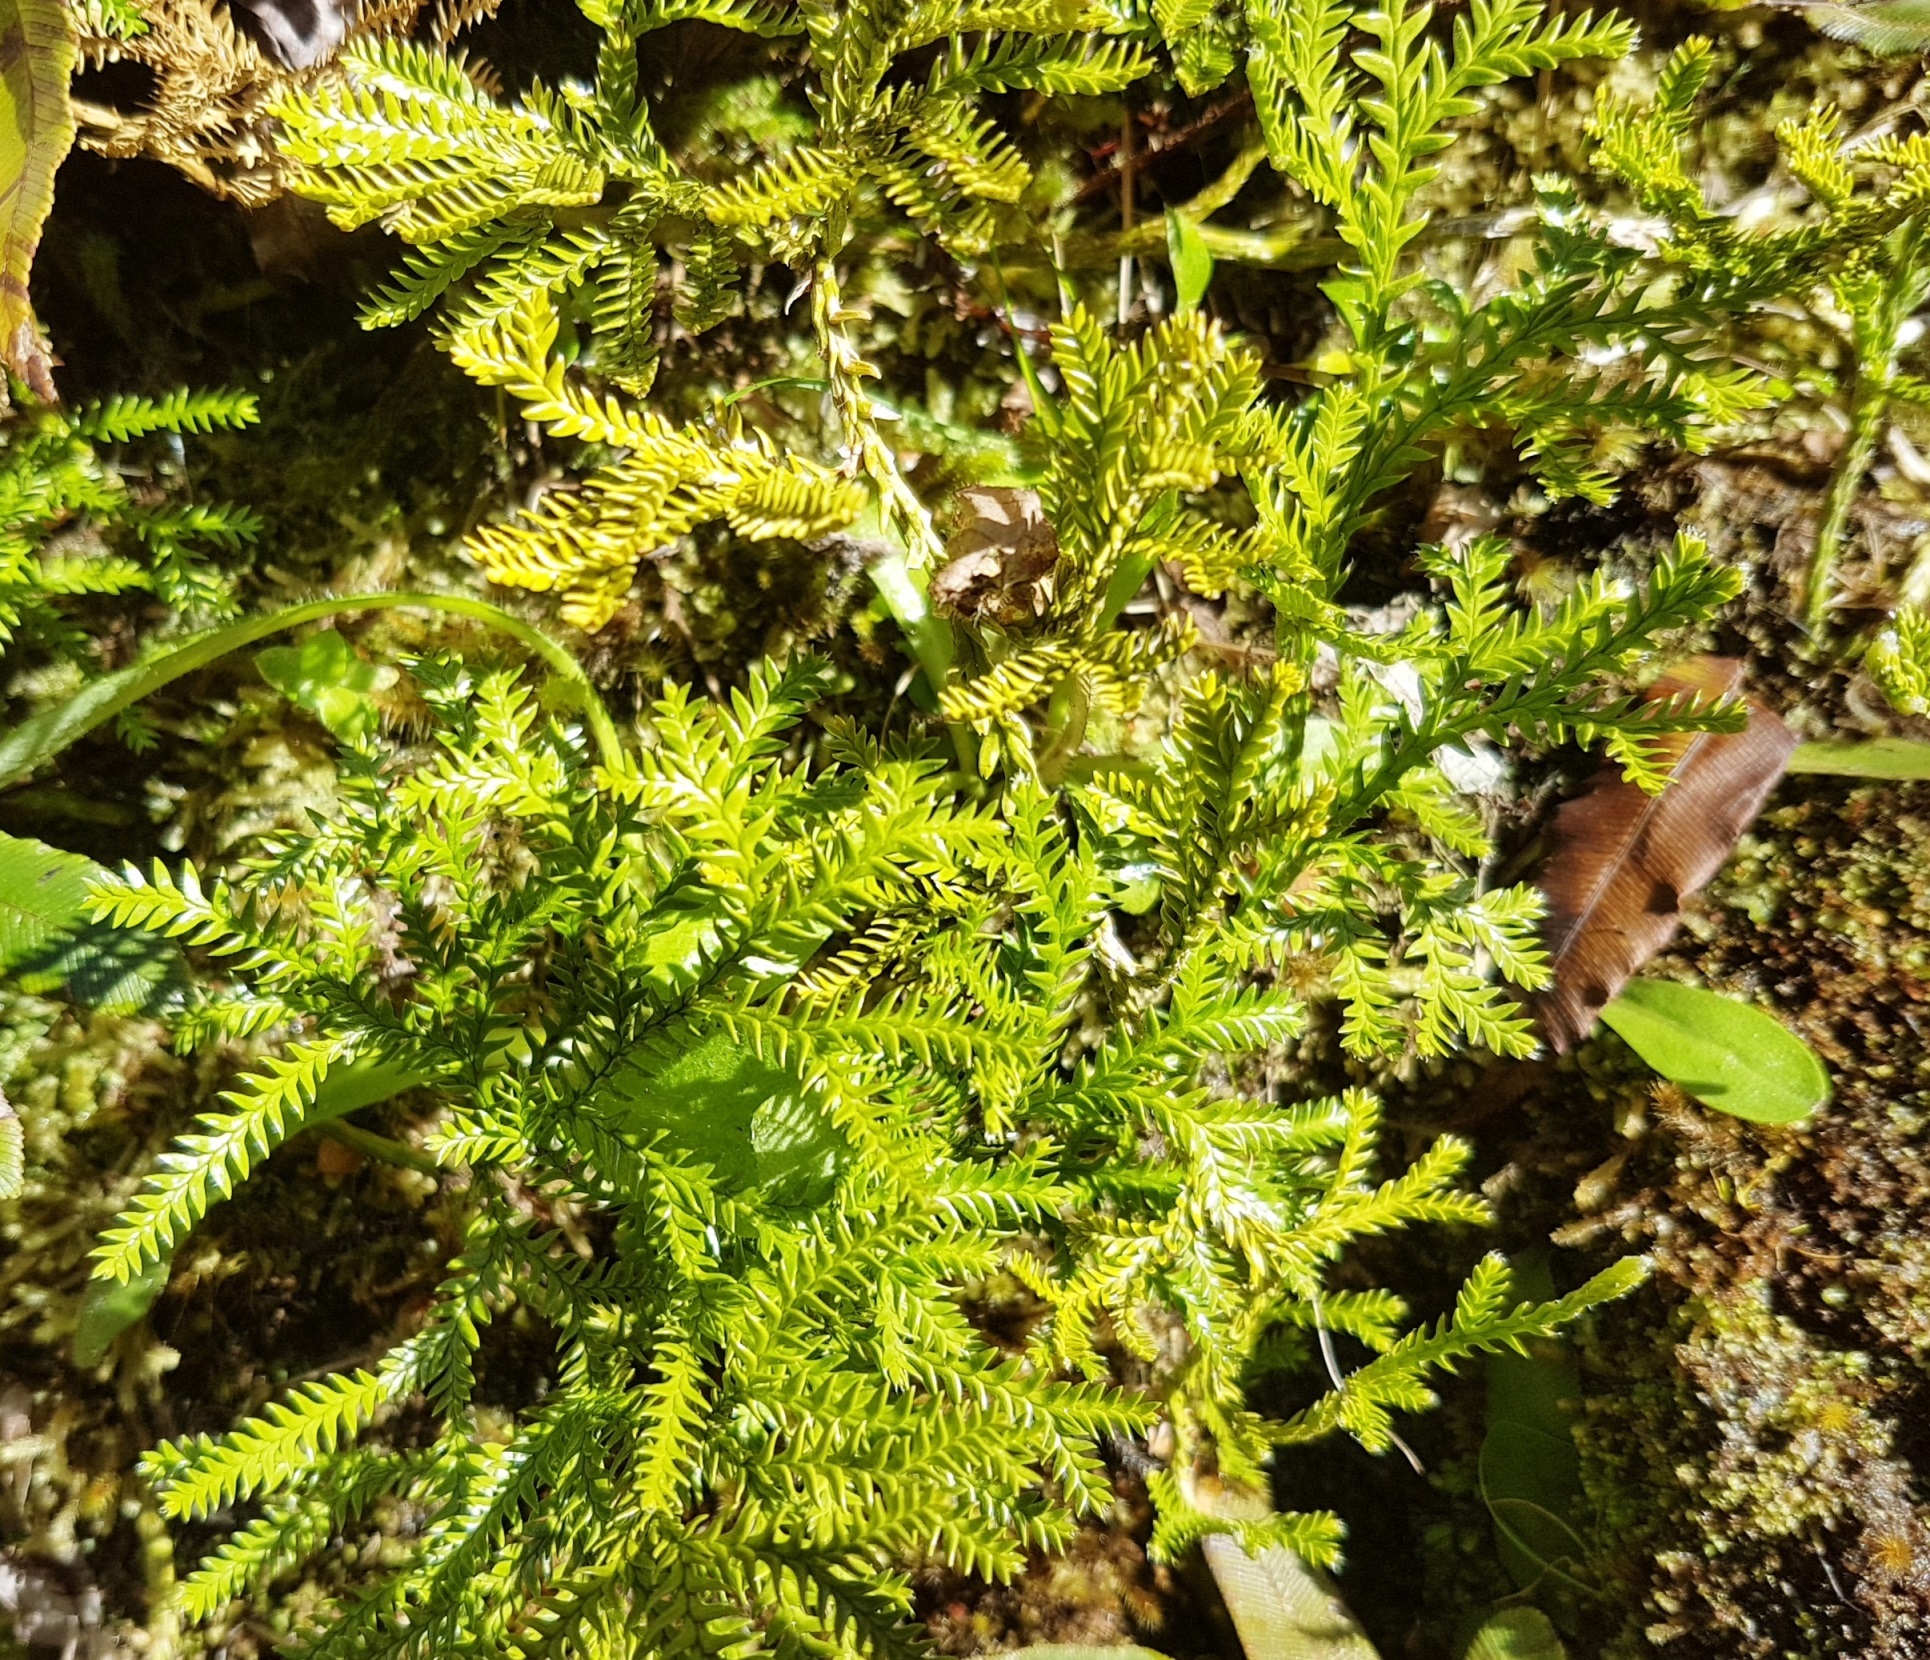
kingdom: Plantae
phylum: Tracheophyta
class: Lycopodiopsida
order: Lycopodiales
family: Lycopodiaceae
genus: Diphasium
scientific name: Diphasium scariosum
